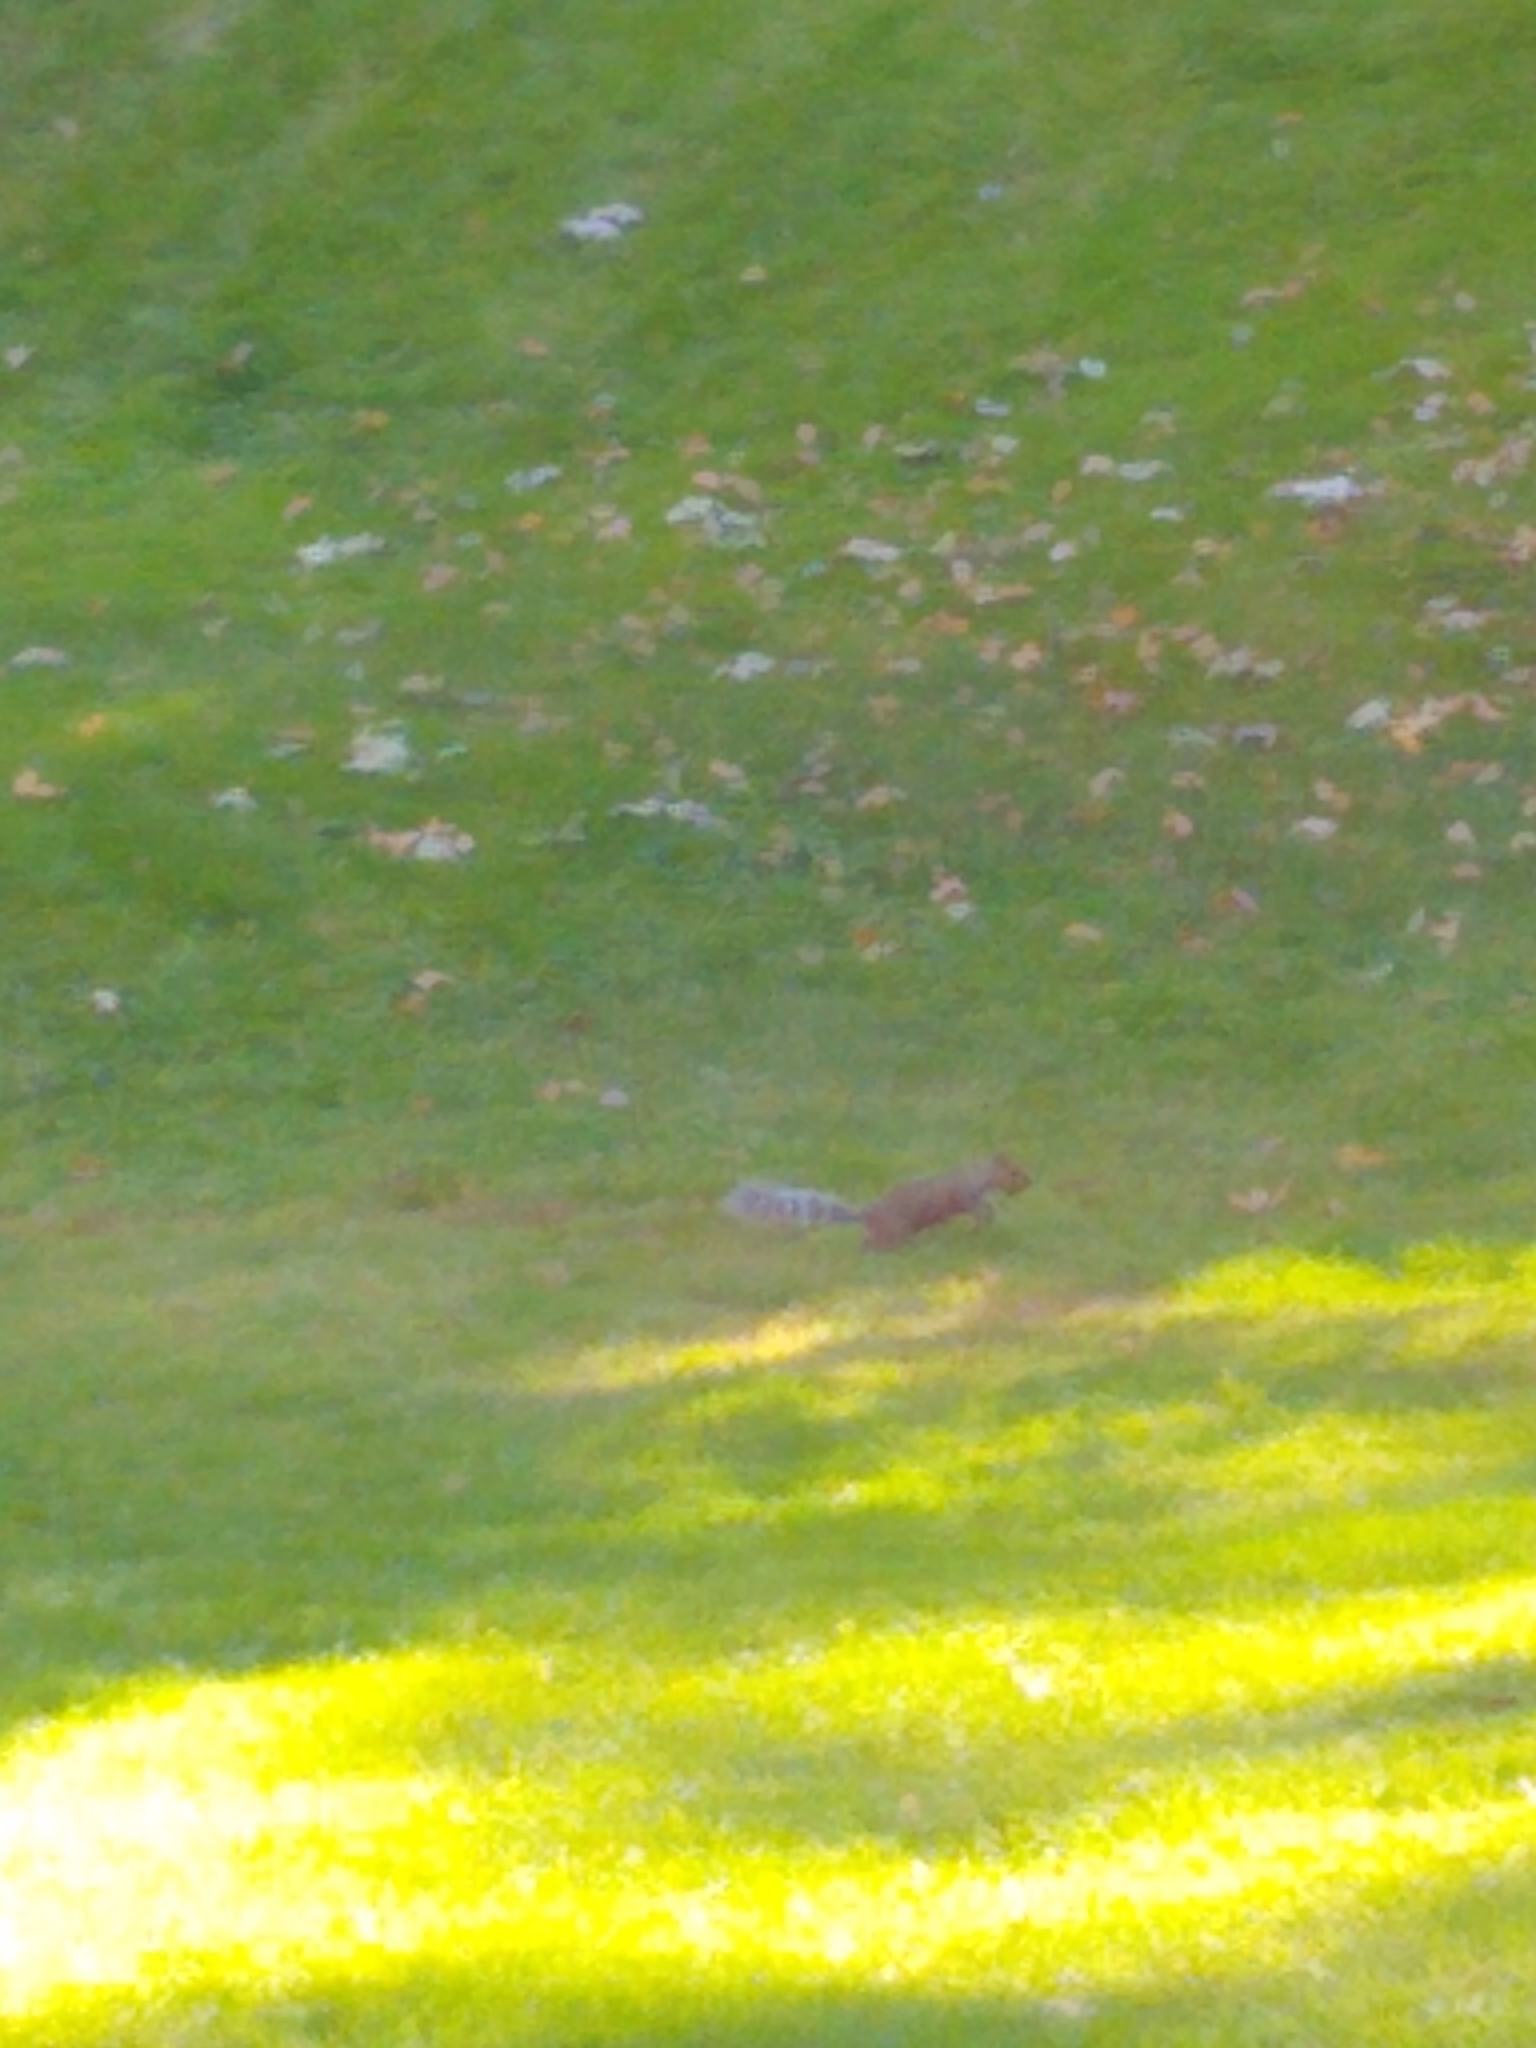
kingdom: Animalia
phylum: Chordata
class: Mammalia
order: Rodentia
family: Sciuridae
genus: Sciurus
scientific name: Sciurus carolinensis
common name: Eastern gray squirrel
